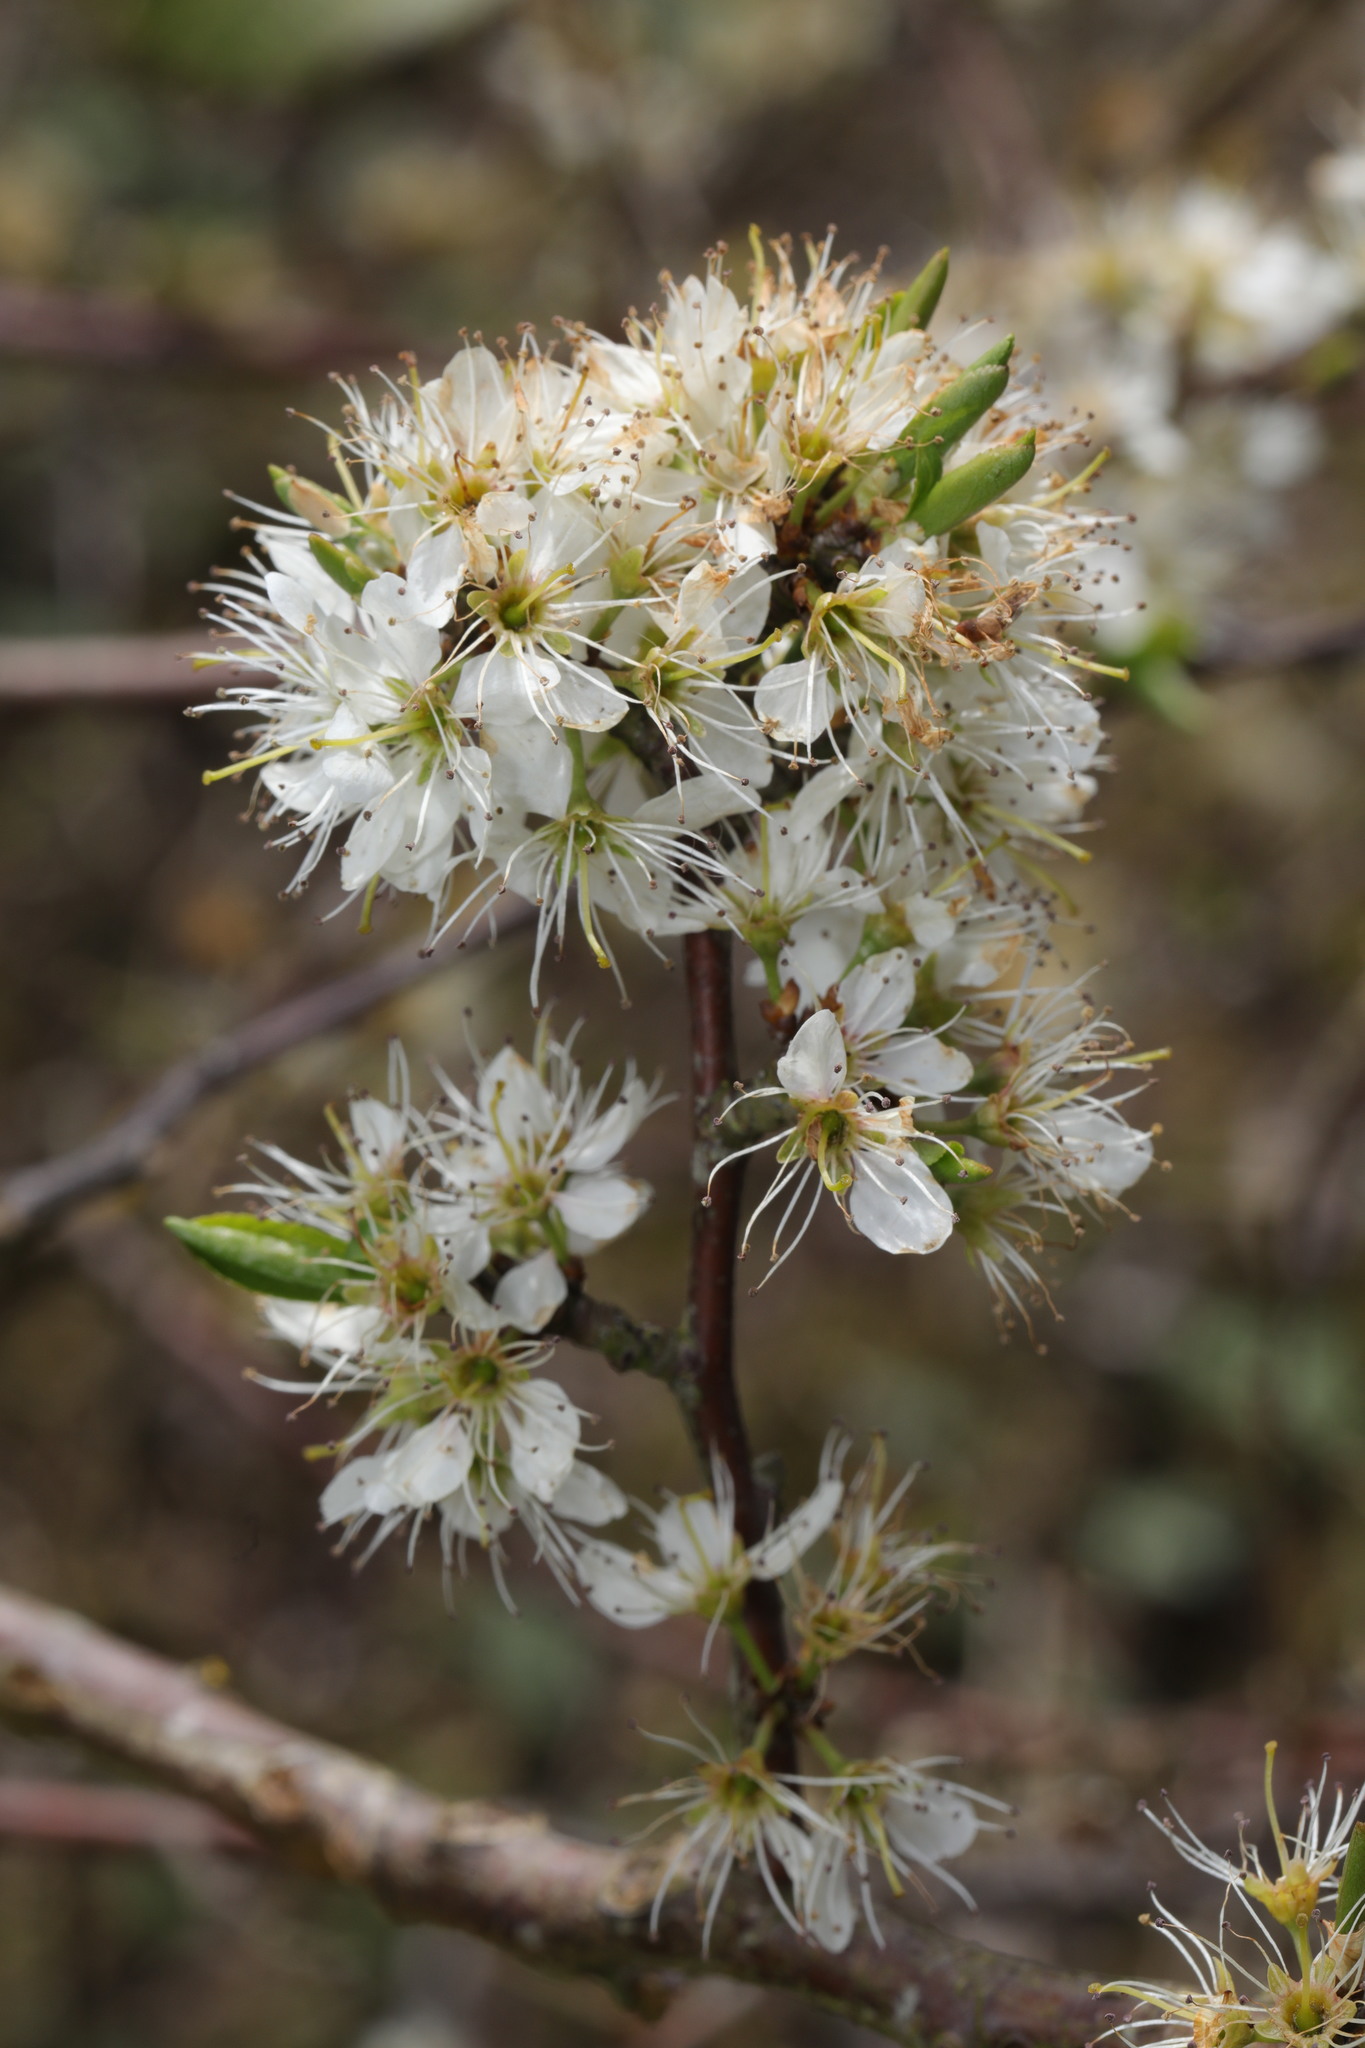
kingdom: Plantae
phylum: Tracheophyta
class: Magnoliopsida
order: Rosales
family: Rosaceae
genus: Prunus
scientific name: Prunus spinosa
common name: Blackthorn
